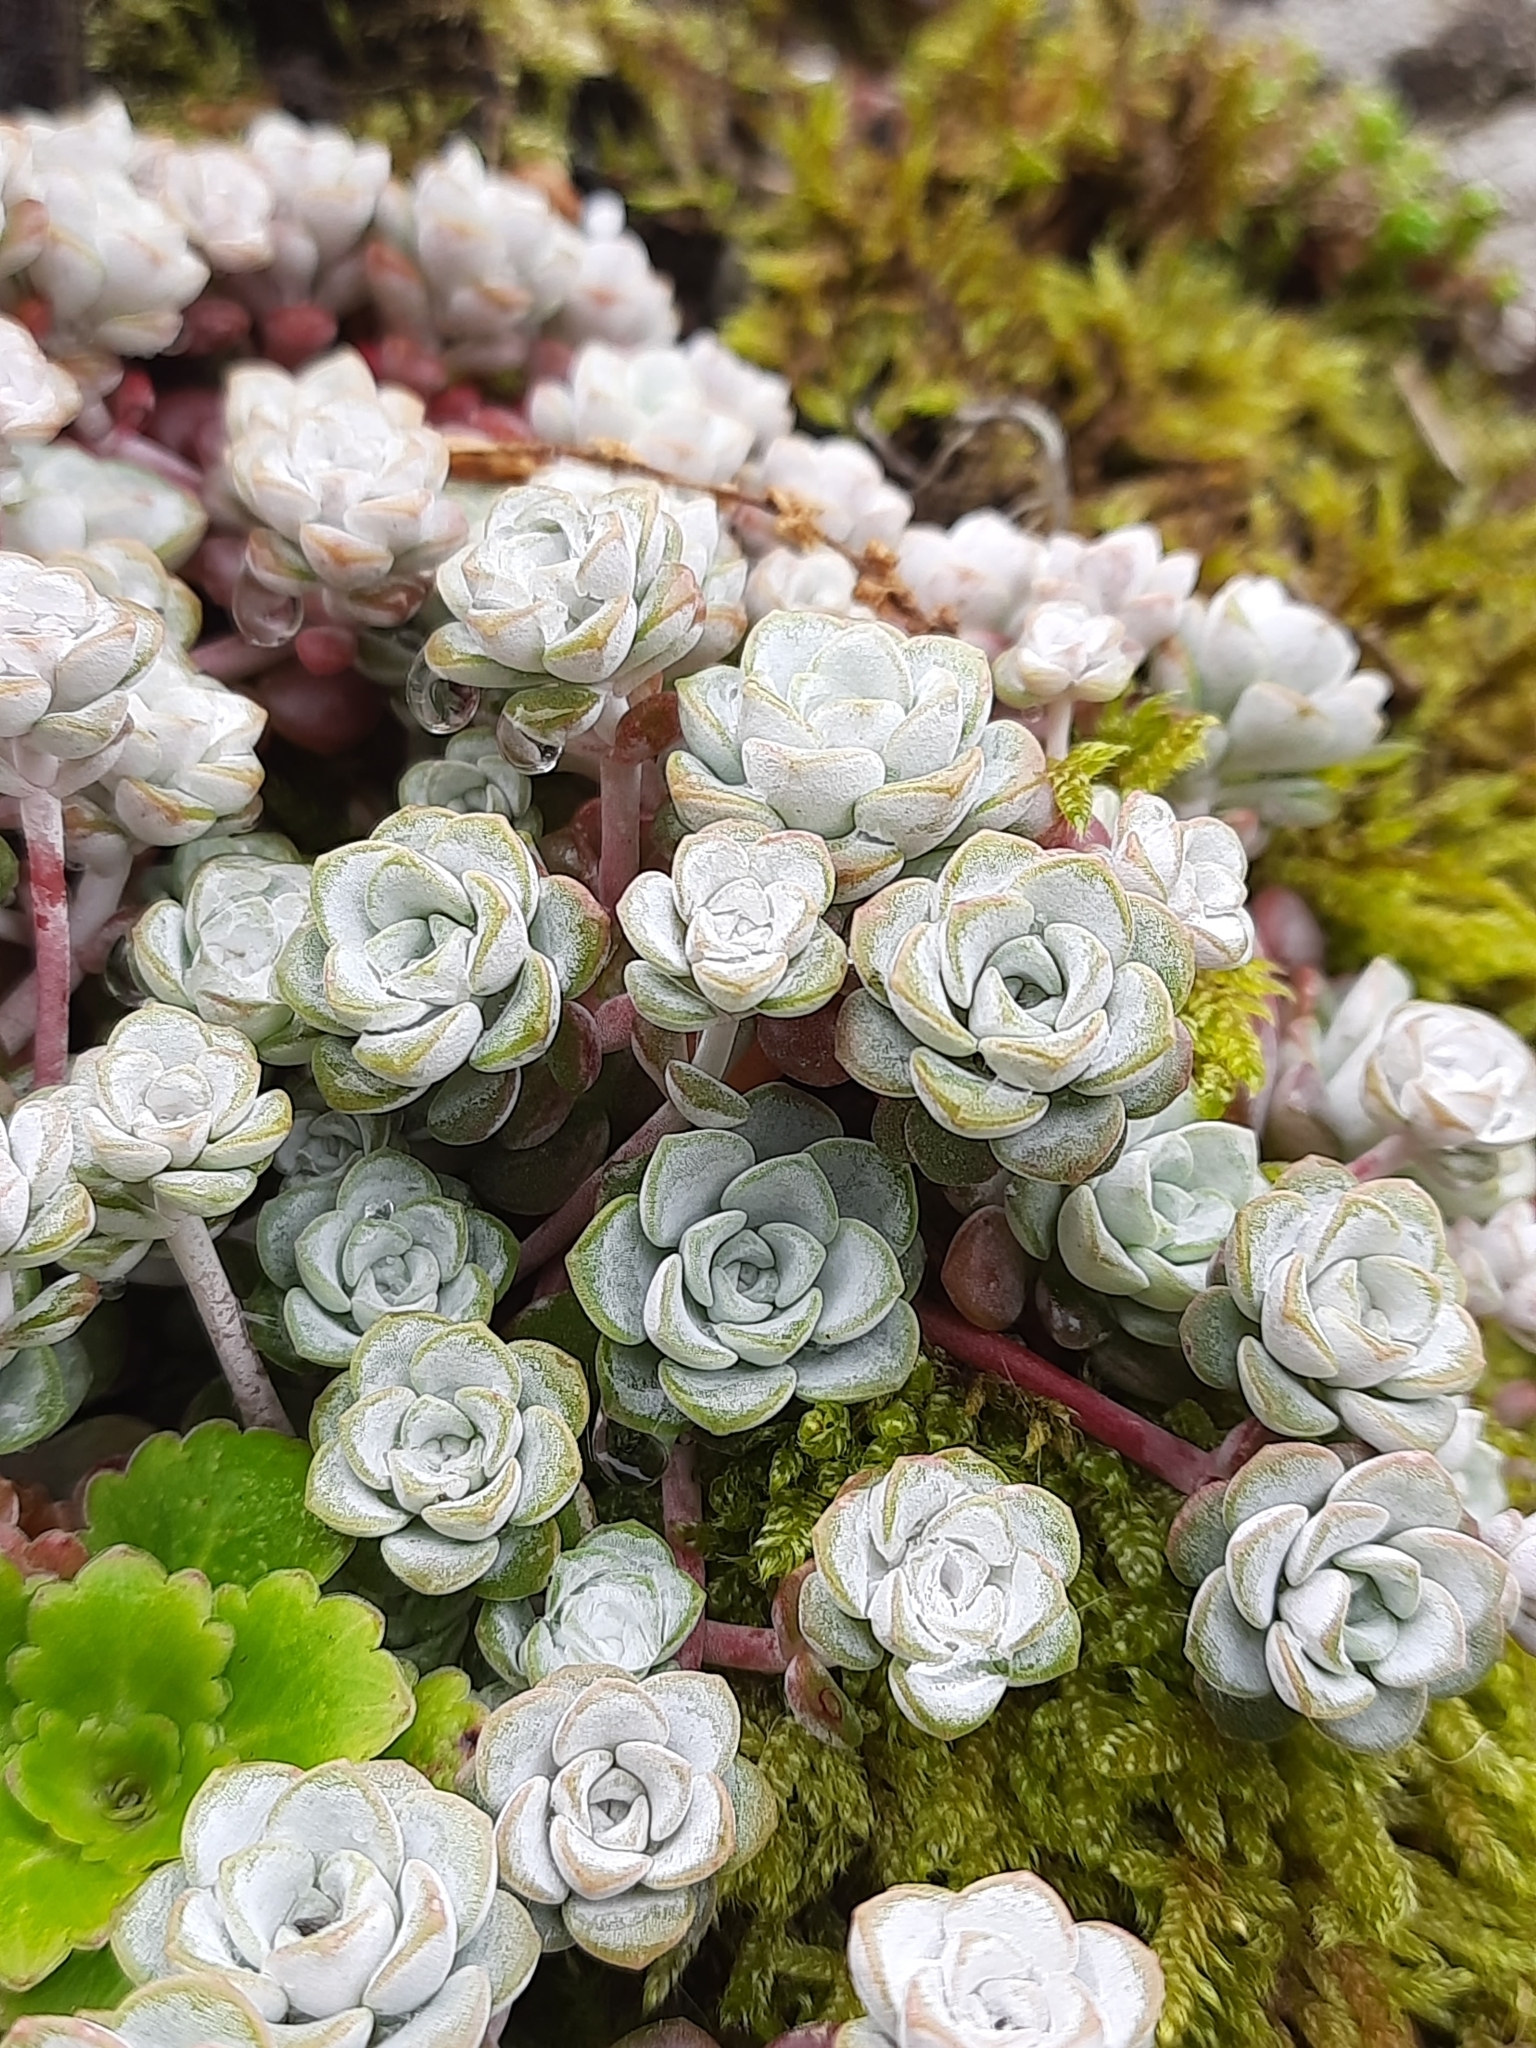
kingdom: Plantae
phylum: Tracheophyta
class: Magnoliopsida
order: Saxifragales
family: Crassulaceae
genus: Sedum
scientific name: Sedum spathulifolium
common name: Colorado stonecrop
